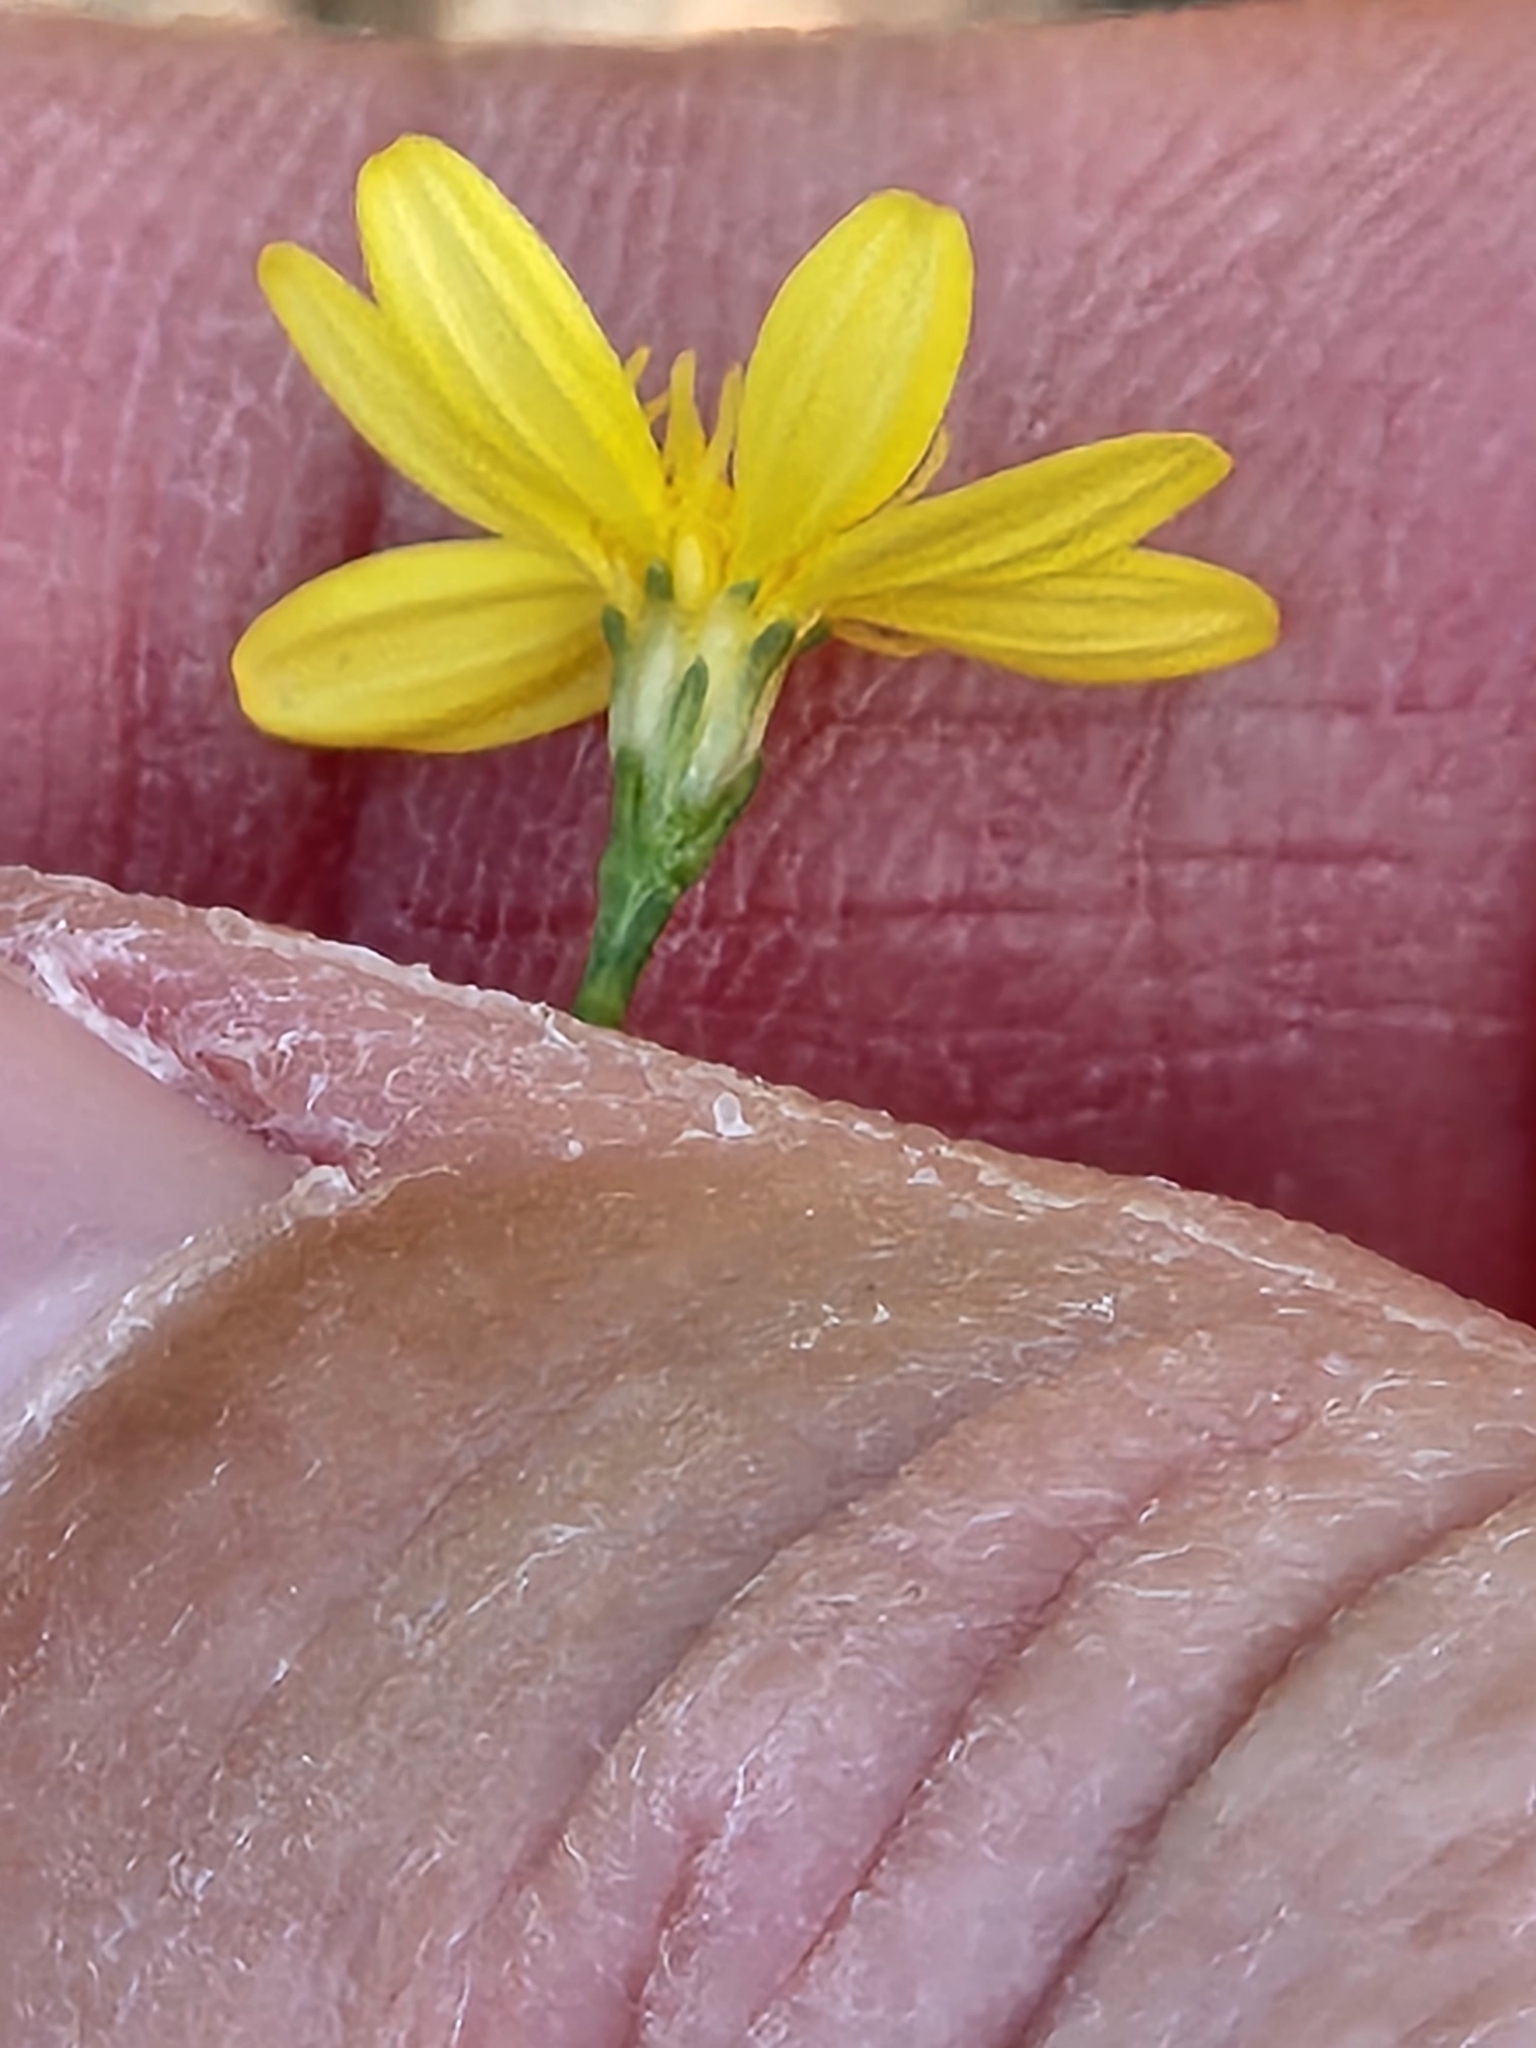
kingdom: Plantae
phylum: Tracheophyta
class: Magnoliopsida
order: Asterales
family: Asteraceae
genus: Gutierrezia
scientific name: Gutierrezia texana
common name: Texas snakeweed
